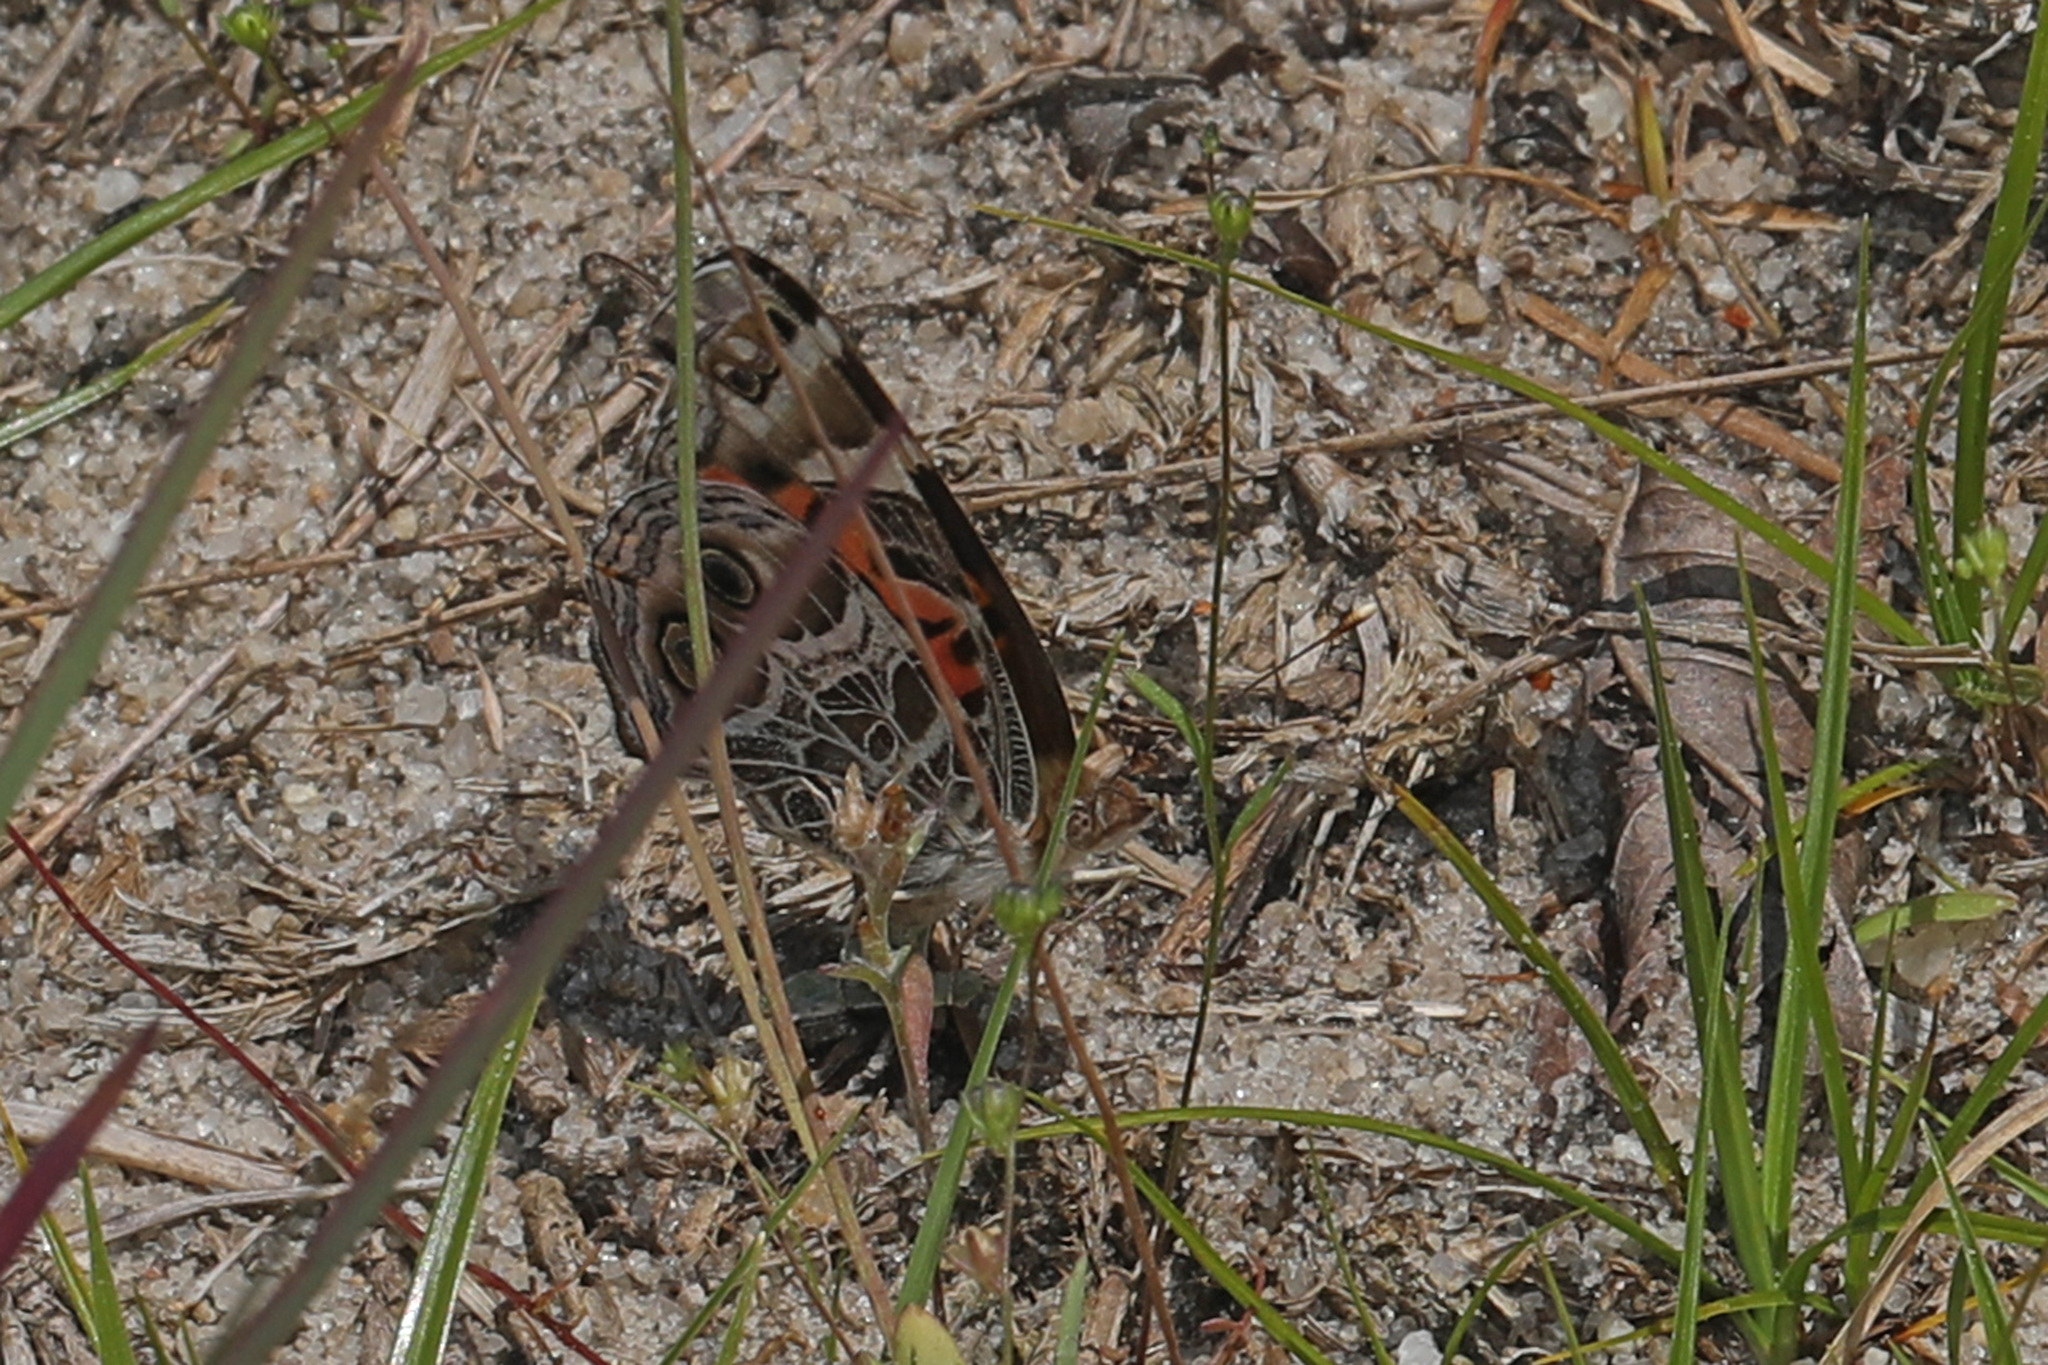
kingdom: Animalia
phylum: Arthropoda
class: Insecta
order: Lepidoptera
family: Nymphalidae
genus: Vanessa
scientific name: Vanessa virginiensis
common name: American lady
